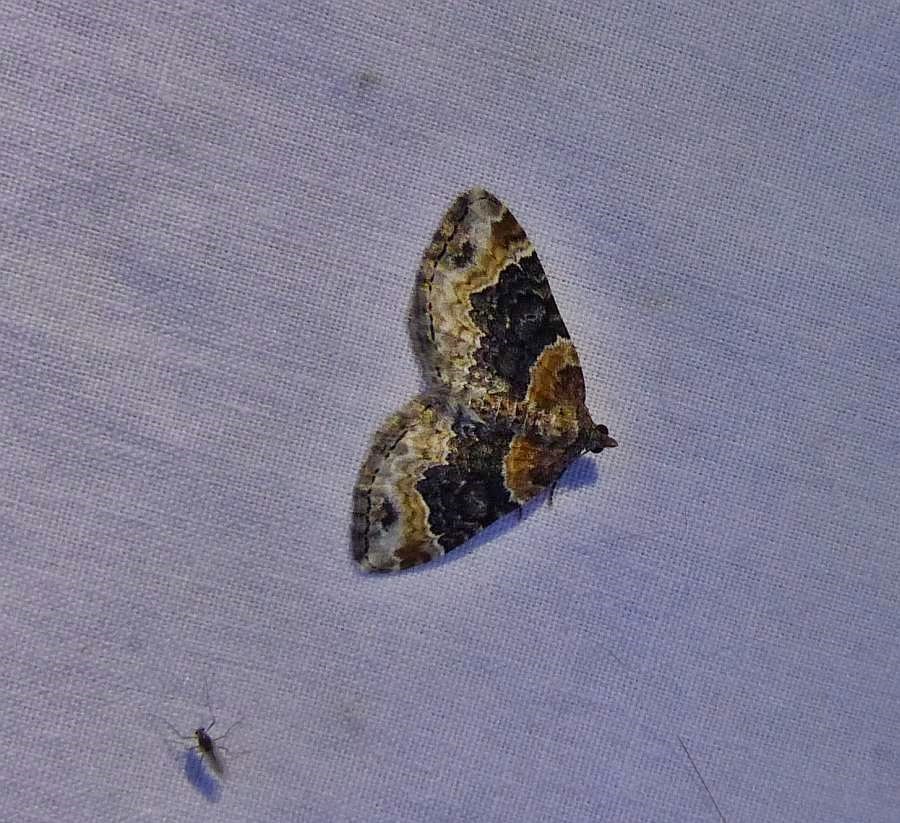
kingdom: Animalia
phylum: Arthropoda
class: Insecta
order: Lepidoptera
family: Geometridae
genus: Xanthorhoe
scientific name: Xanthorhoe ferrugata
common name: Dark-barred twin-spot carpet
